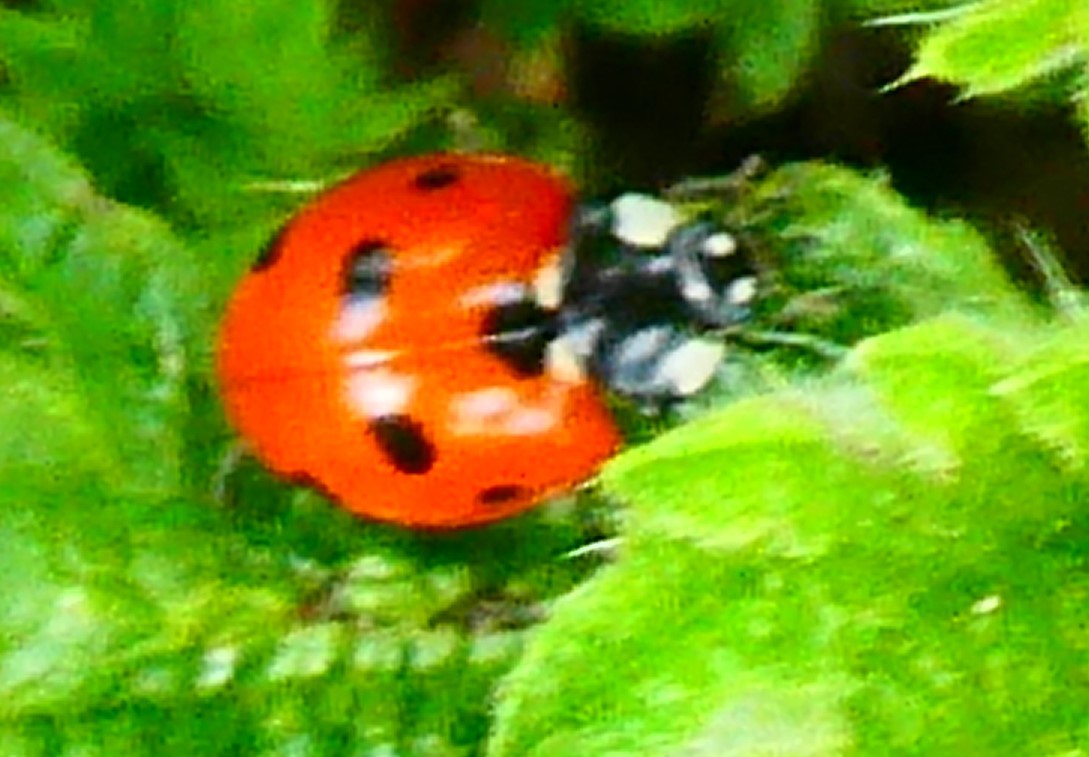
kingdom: Animalia
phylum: Arthropoda
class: Insecta
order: Coleoptera
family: Coccinellidae
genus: Coccinella
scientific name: Coccinella septempunctata
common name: Sevenspotted lady beetle
